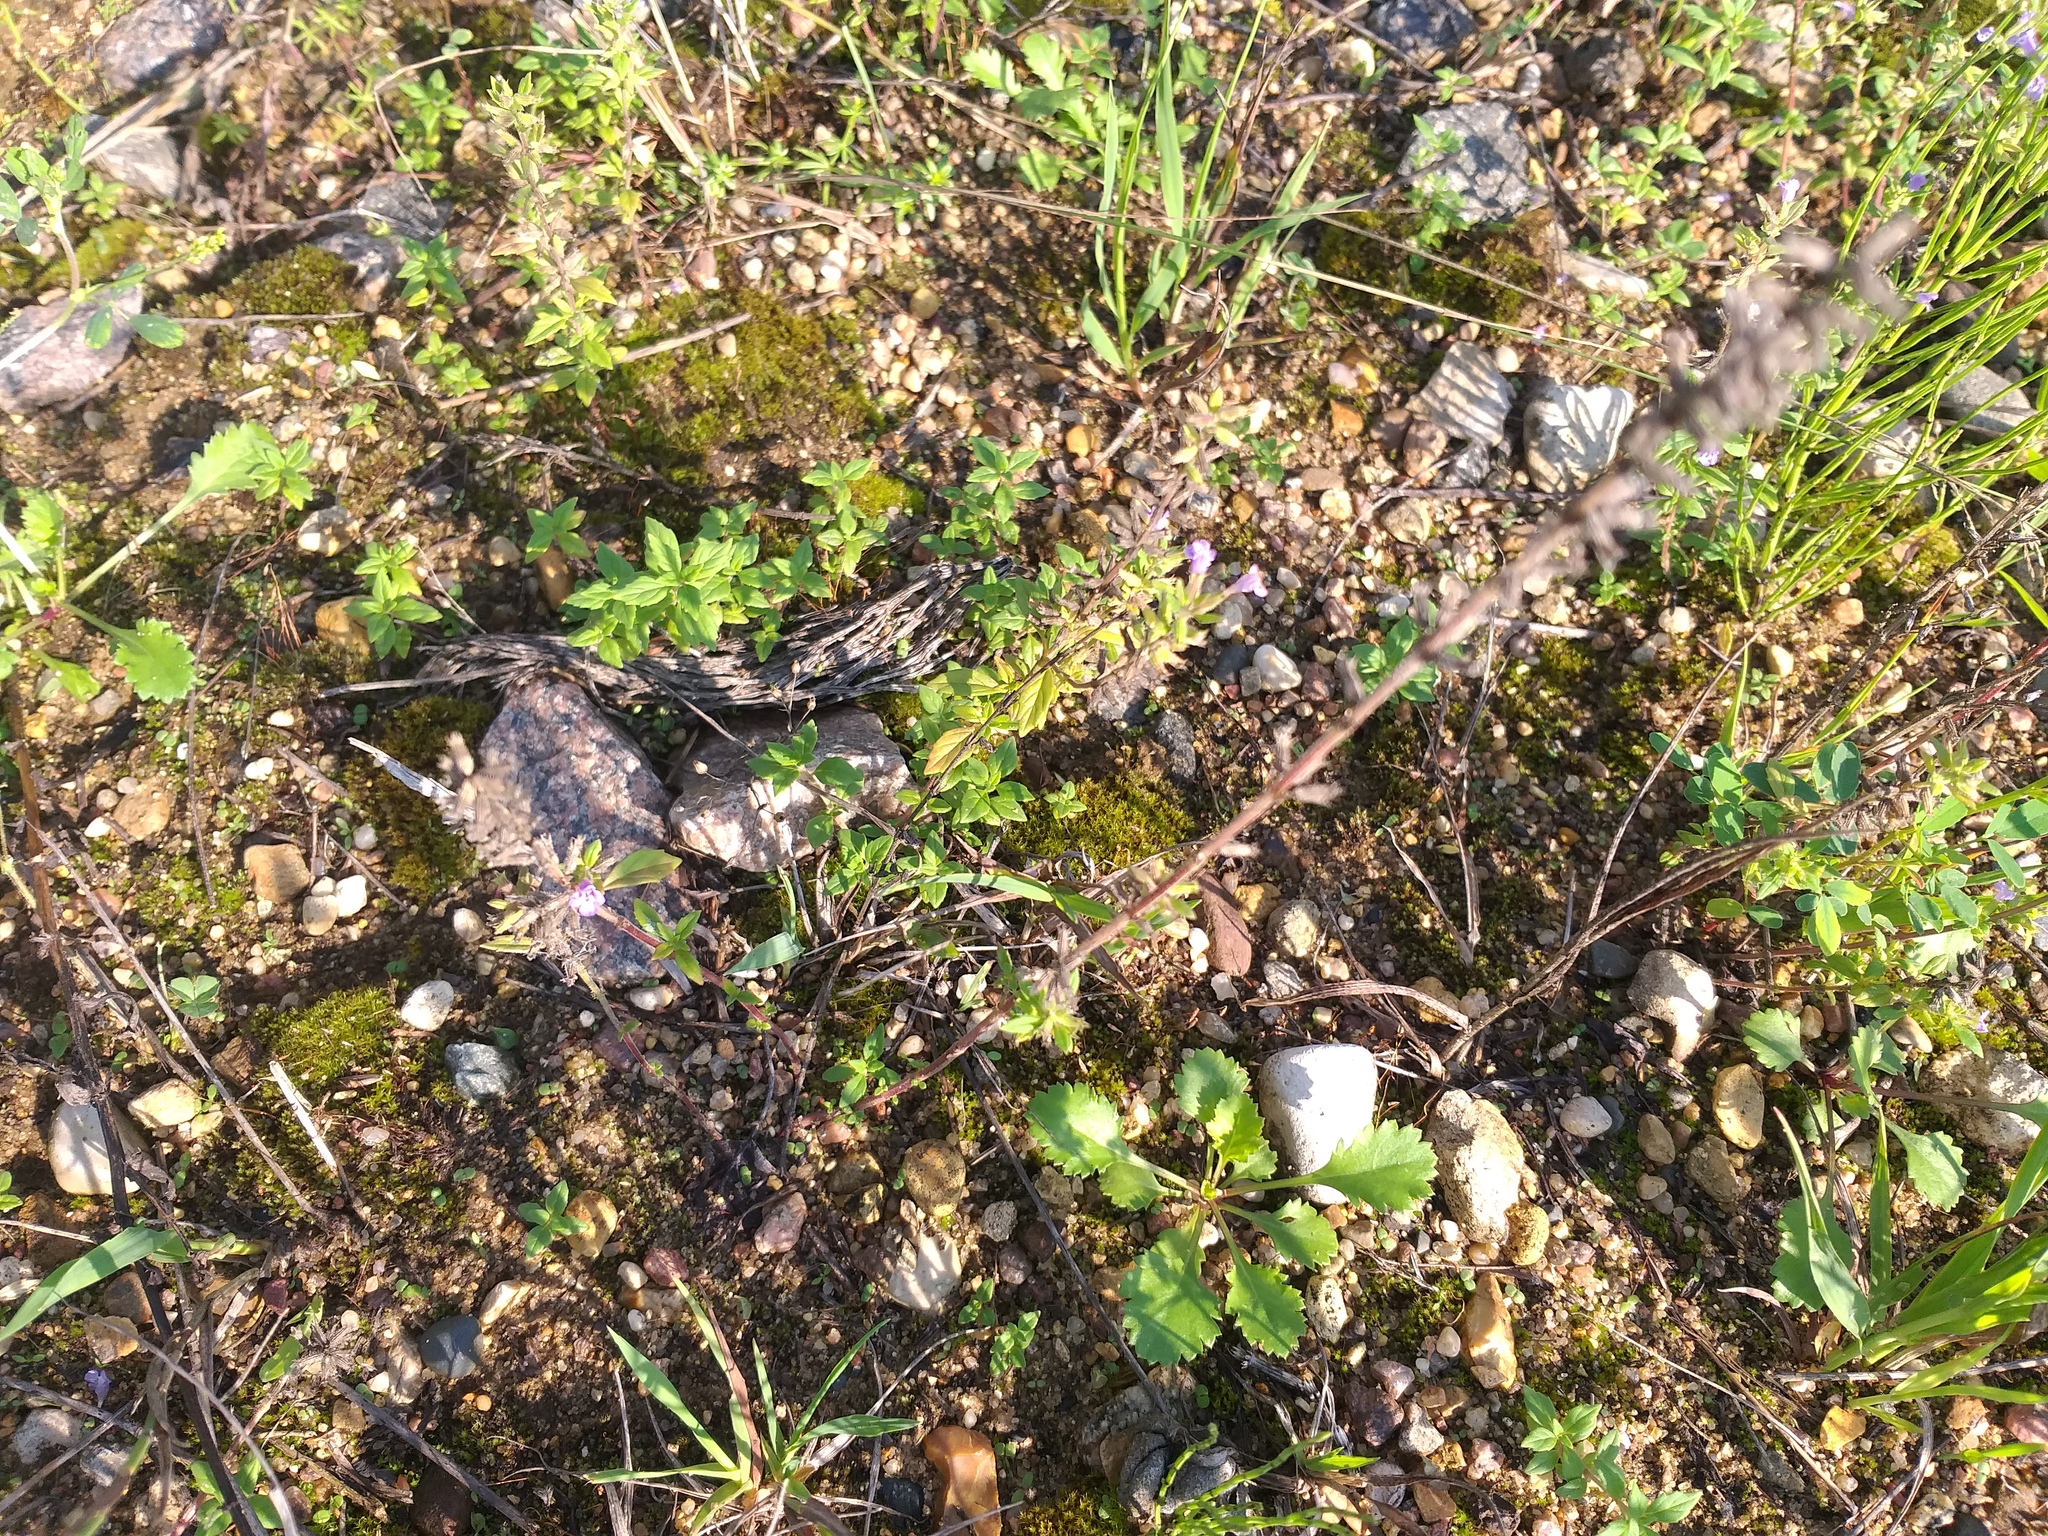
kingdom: Plantae
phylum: Tracheophyta
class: Magnoliopsida
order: Lamiales
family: Lamiaceae
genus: Clinopodium
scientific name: Clinopodium acinos
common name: Basil thyme
